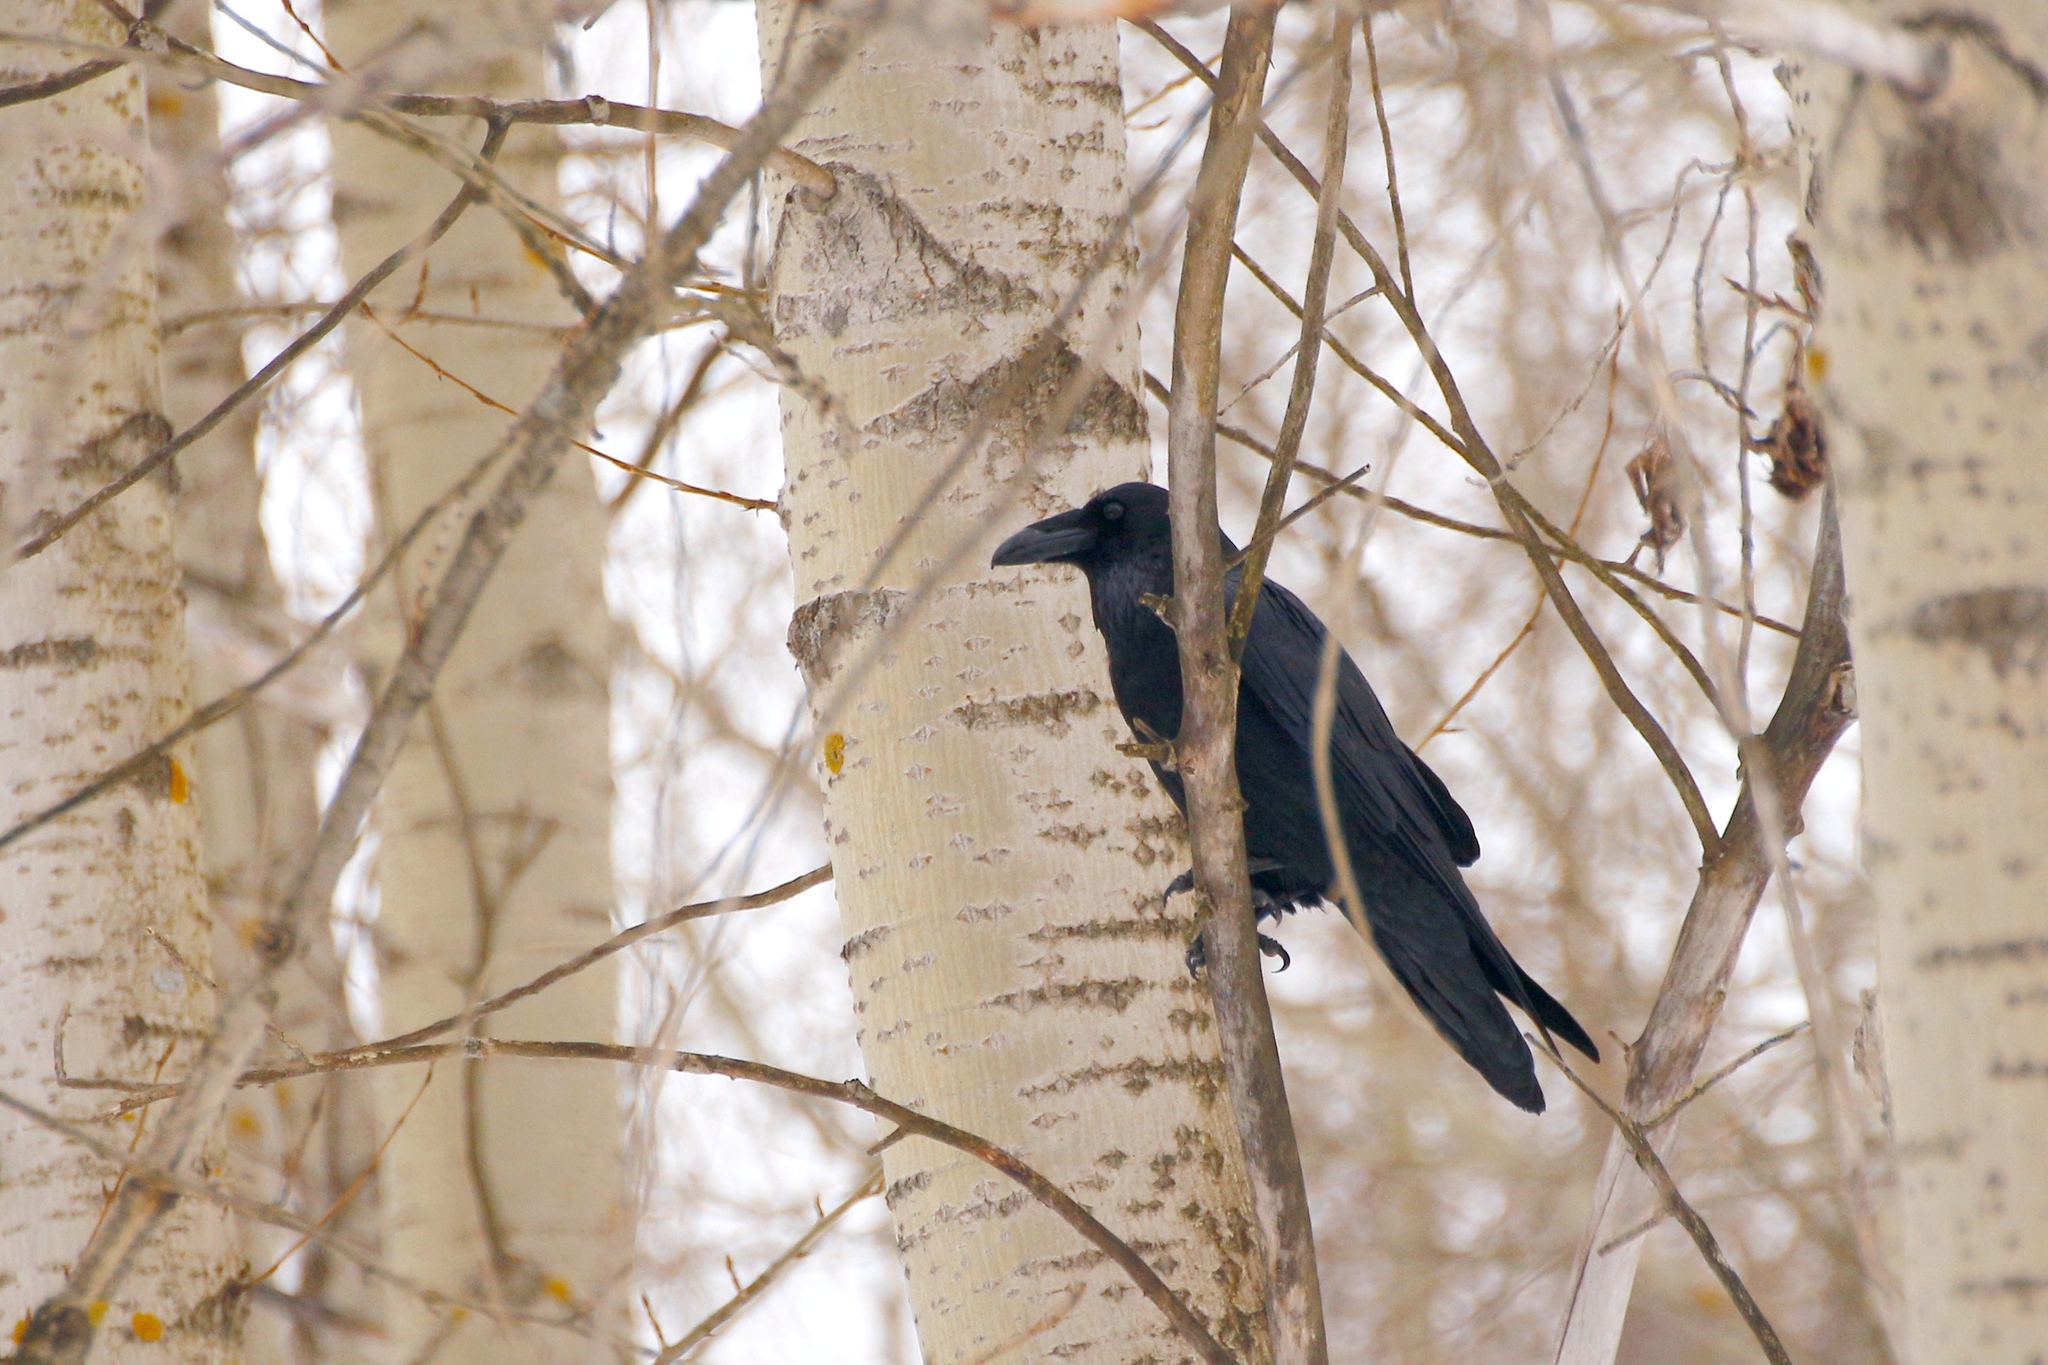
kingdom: Animalia
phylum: Chordata
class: Aves
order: Passeriformes
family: Corvidae
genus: Corvus
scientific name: Corvus corax
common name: Common raven
